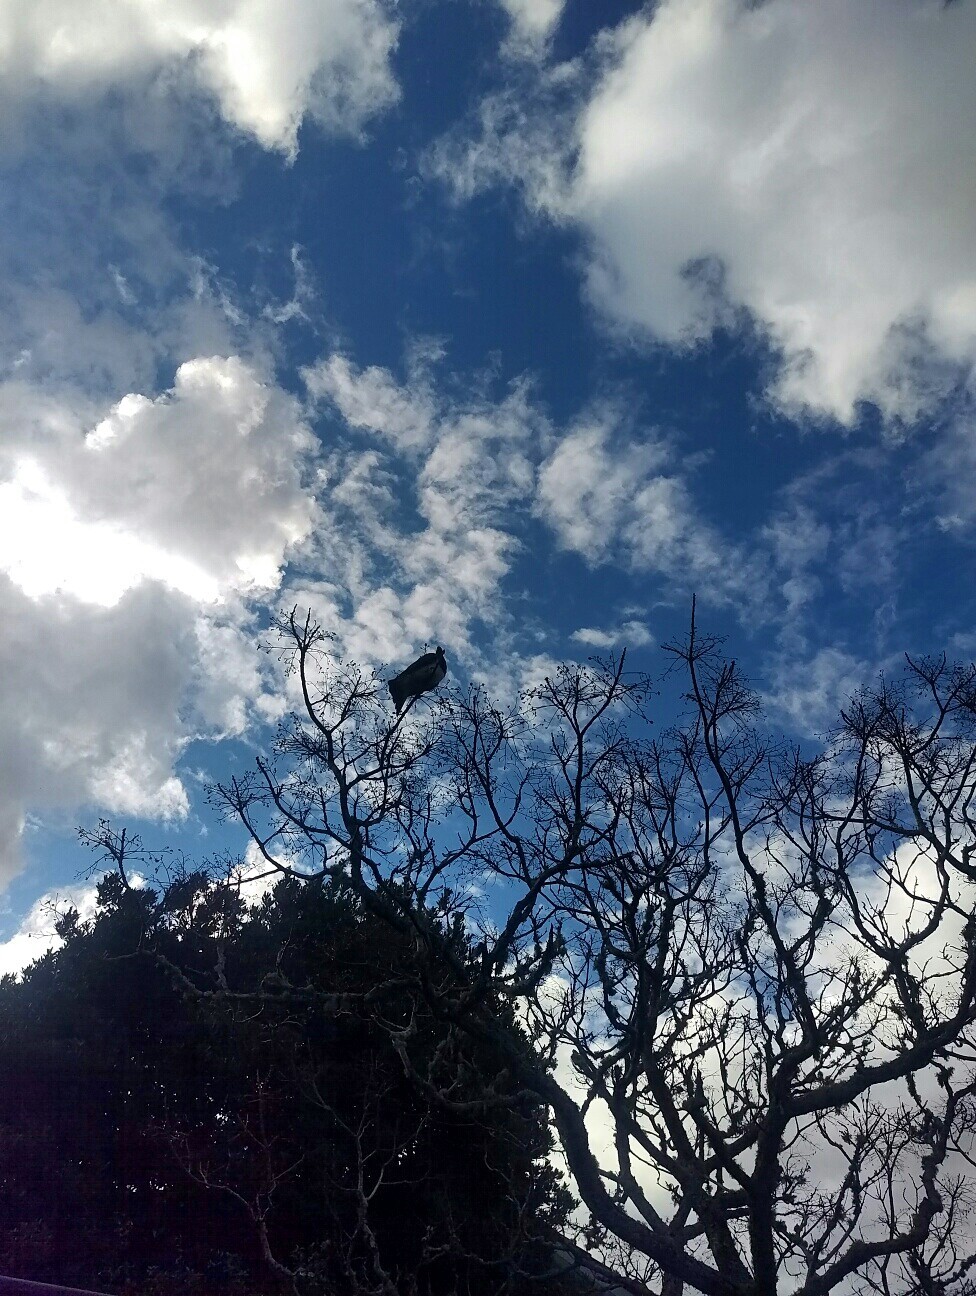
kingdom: Animalia
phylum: Chordata
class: Aves
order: Columbiformes
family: Columbidae
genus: Hemiphaga
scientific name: Hemiphaga novaeseelandiae
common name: New zealand pigeon
